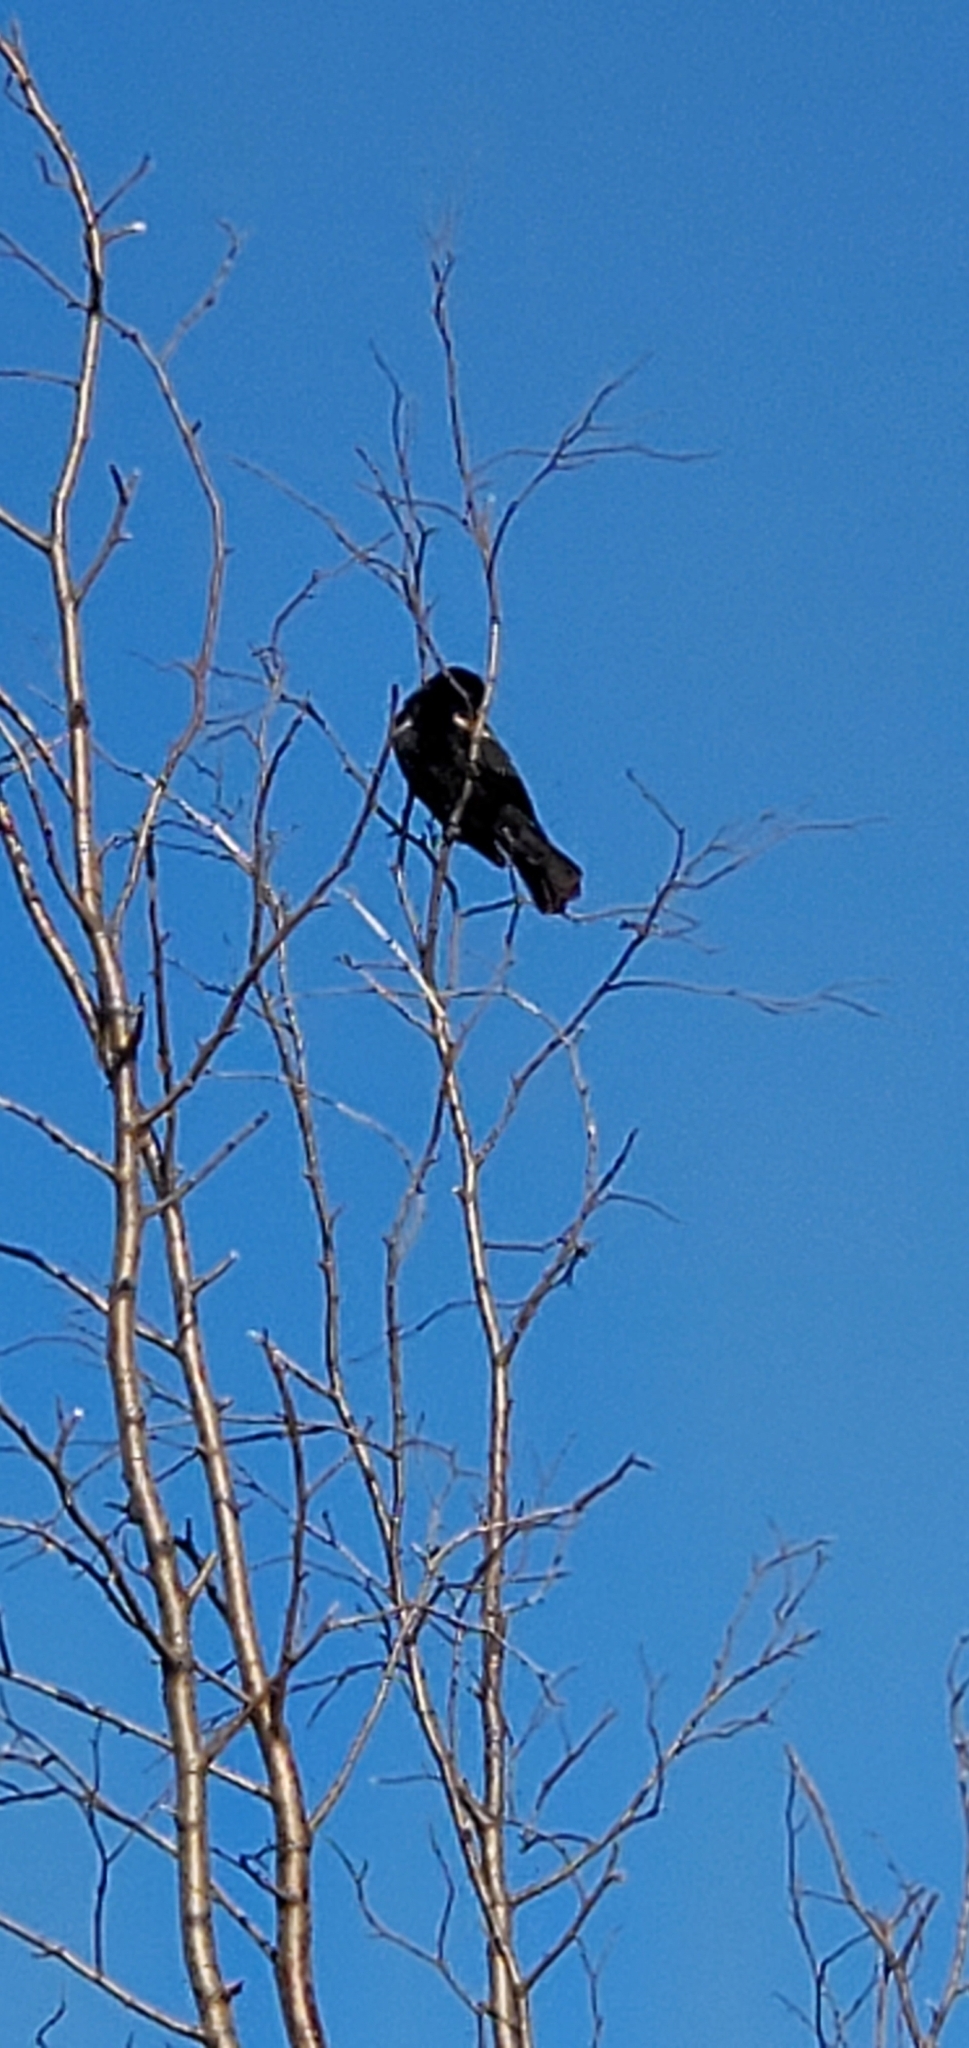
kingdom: Animalia
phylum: Chordata
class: Aves
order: Passeriformes
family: Icteridae
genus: Agelaius
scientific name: Agelaius phoeniceus
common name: Red-winged blackbird
